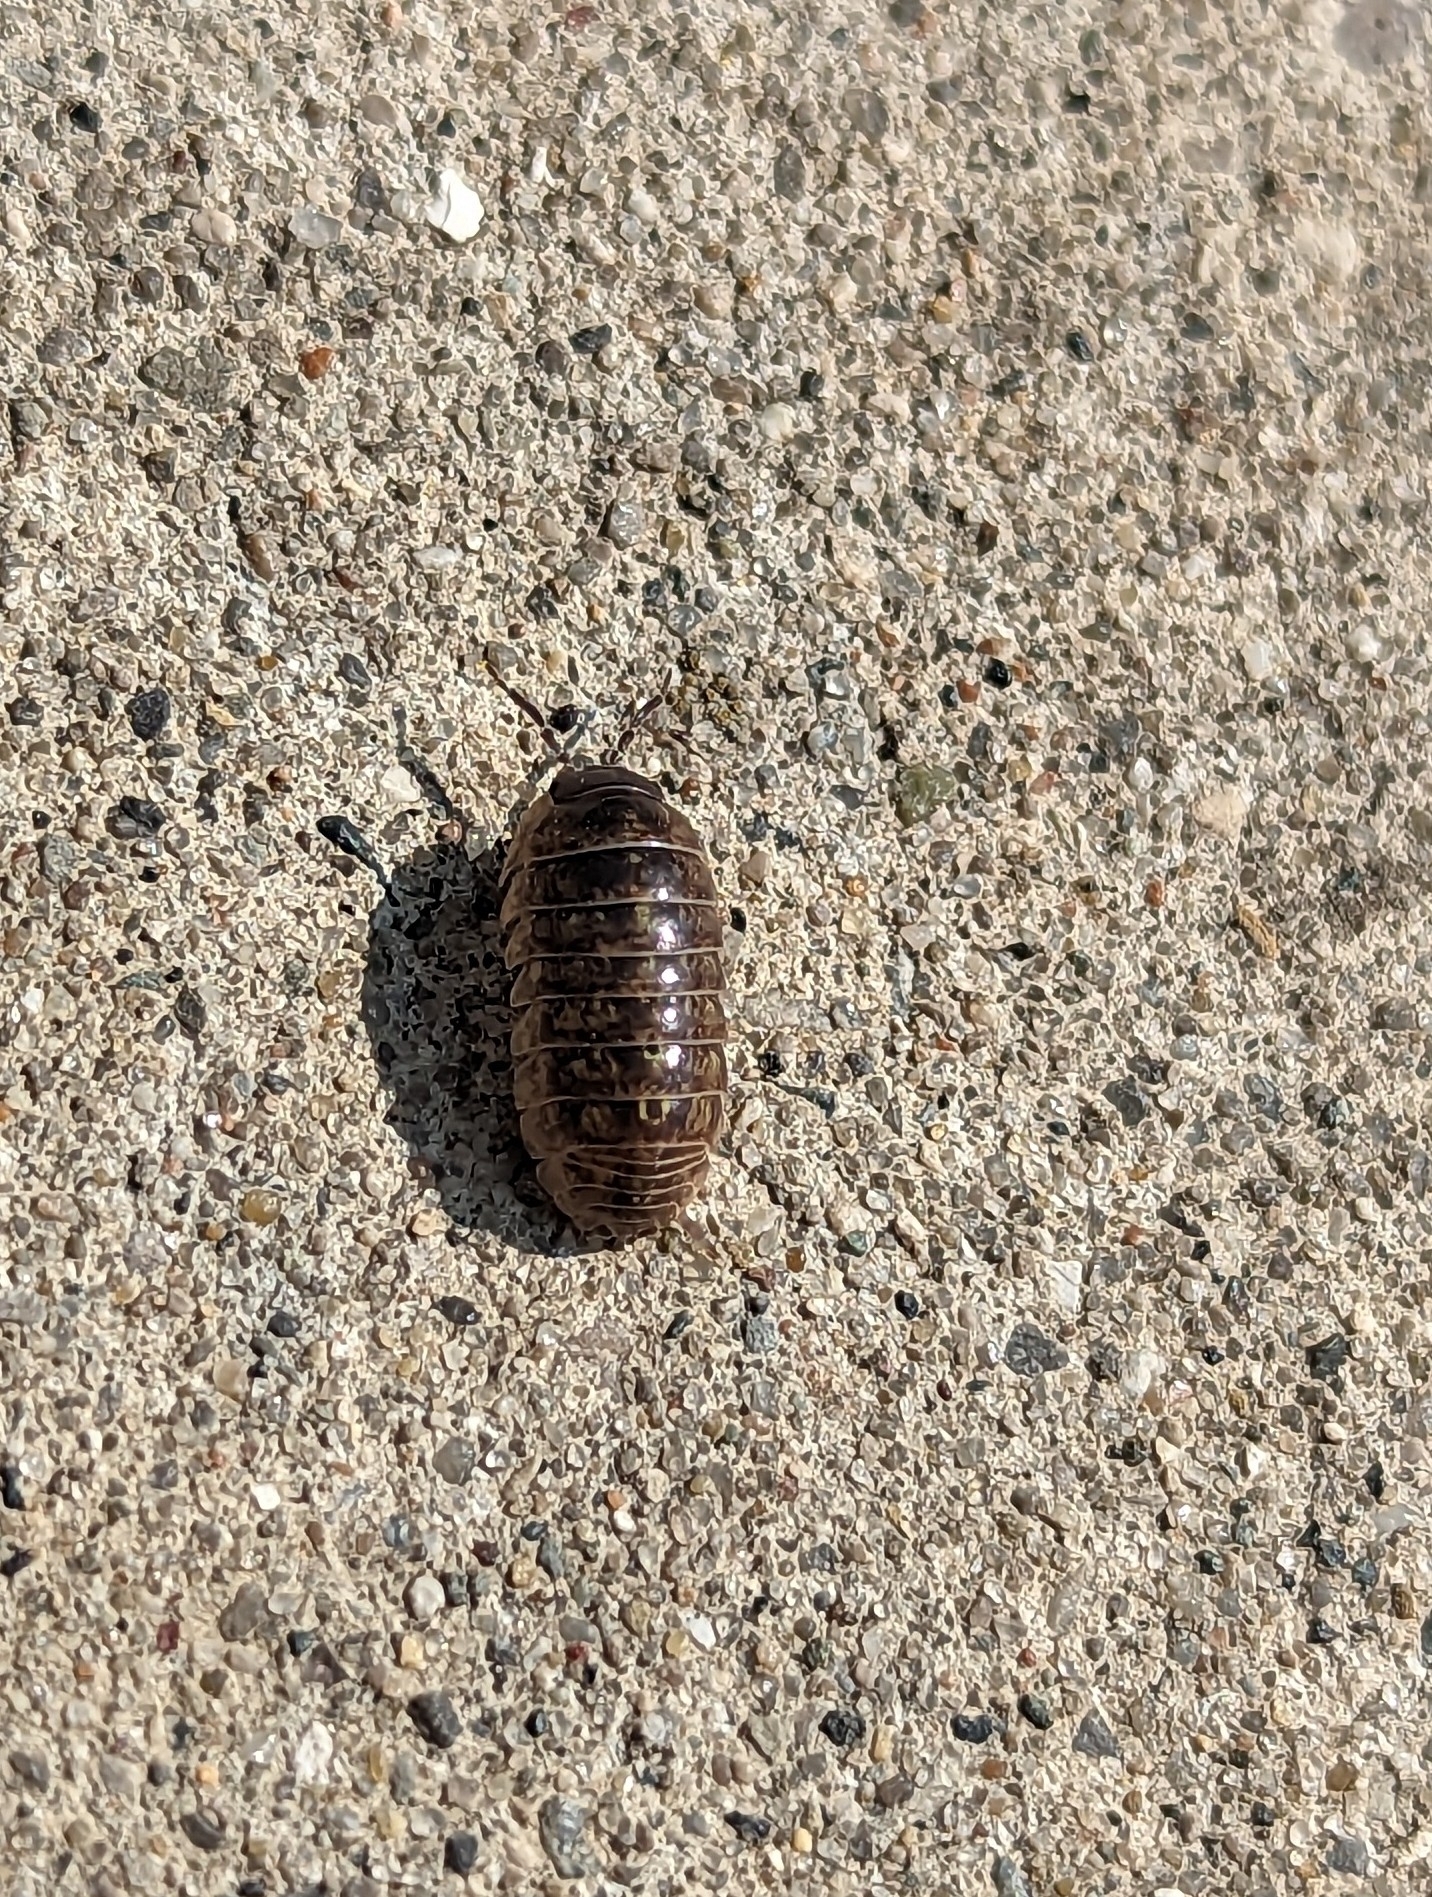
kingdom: Animalia
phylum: Arthropoda
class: Malacostraca
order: Isopoda
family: Armadillidiidae
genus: Armadillidium
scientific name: Armadillidium vulgare
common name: Common pill woodlouse
